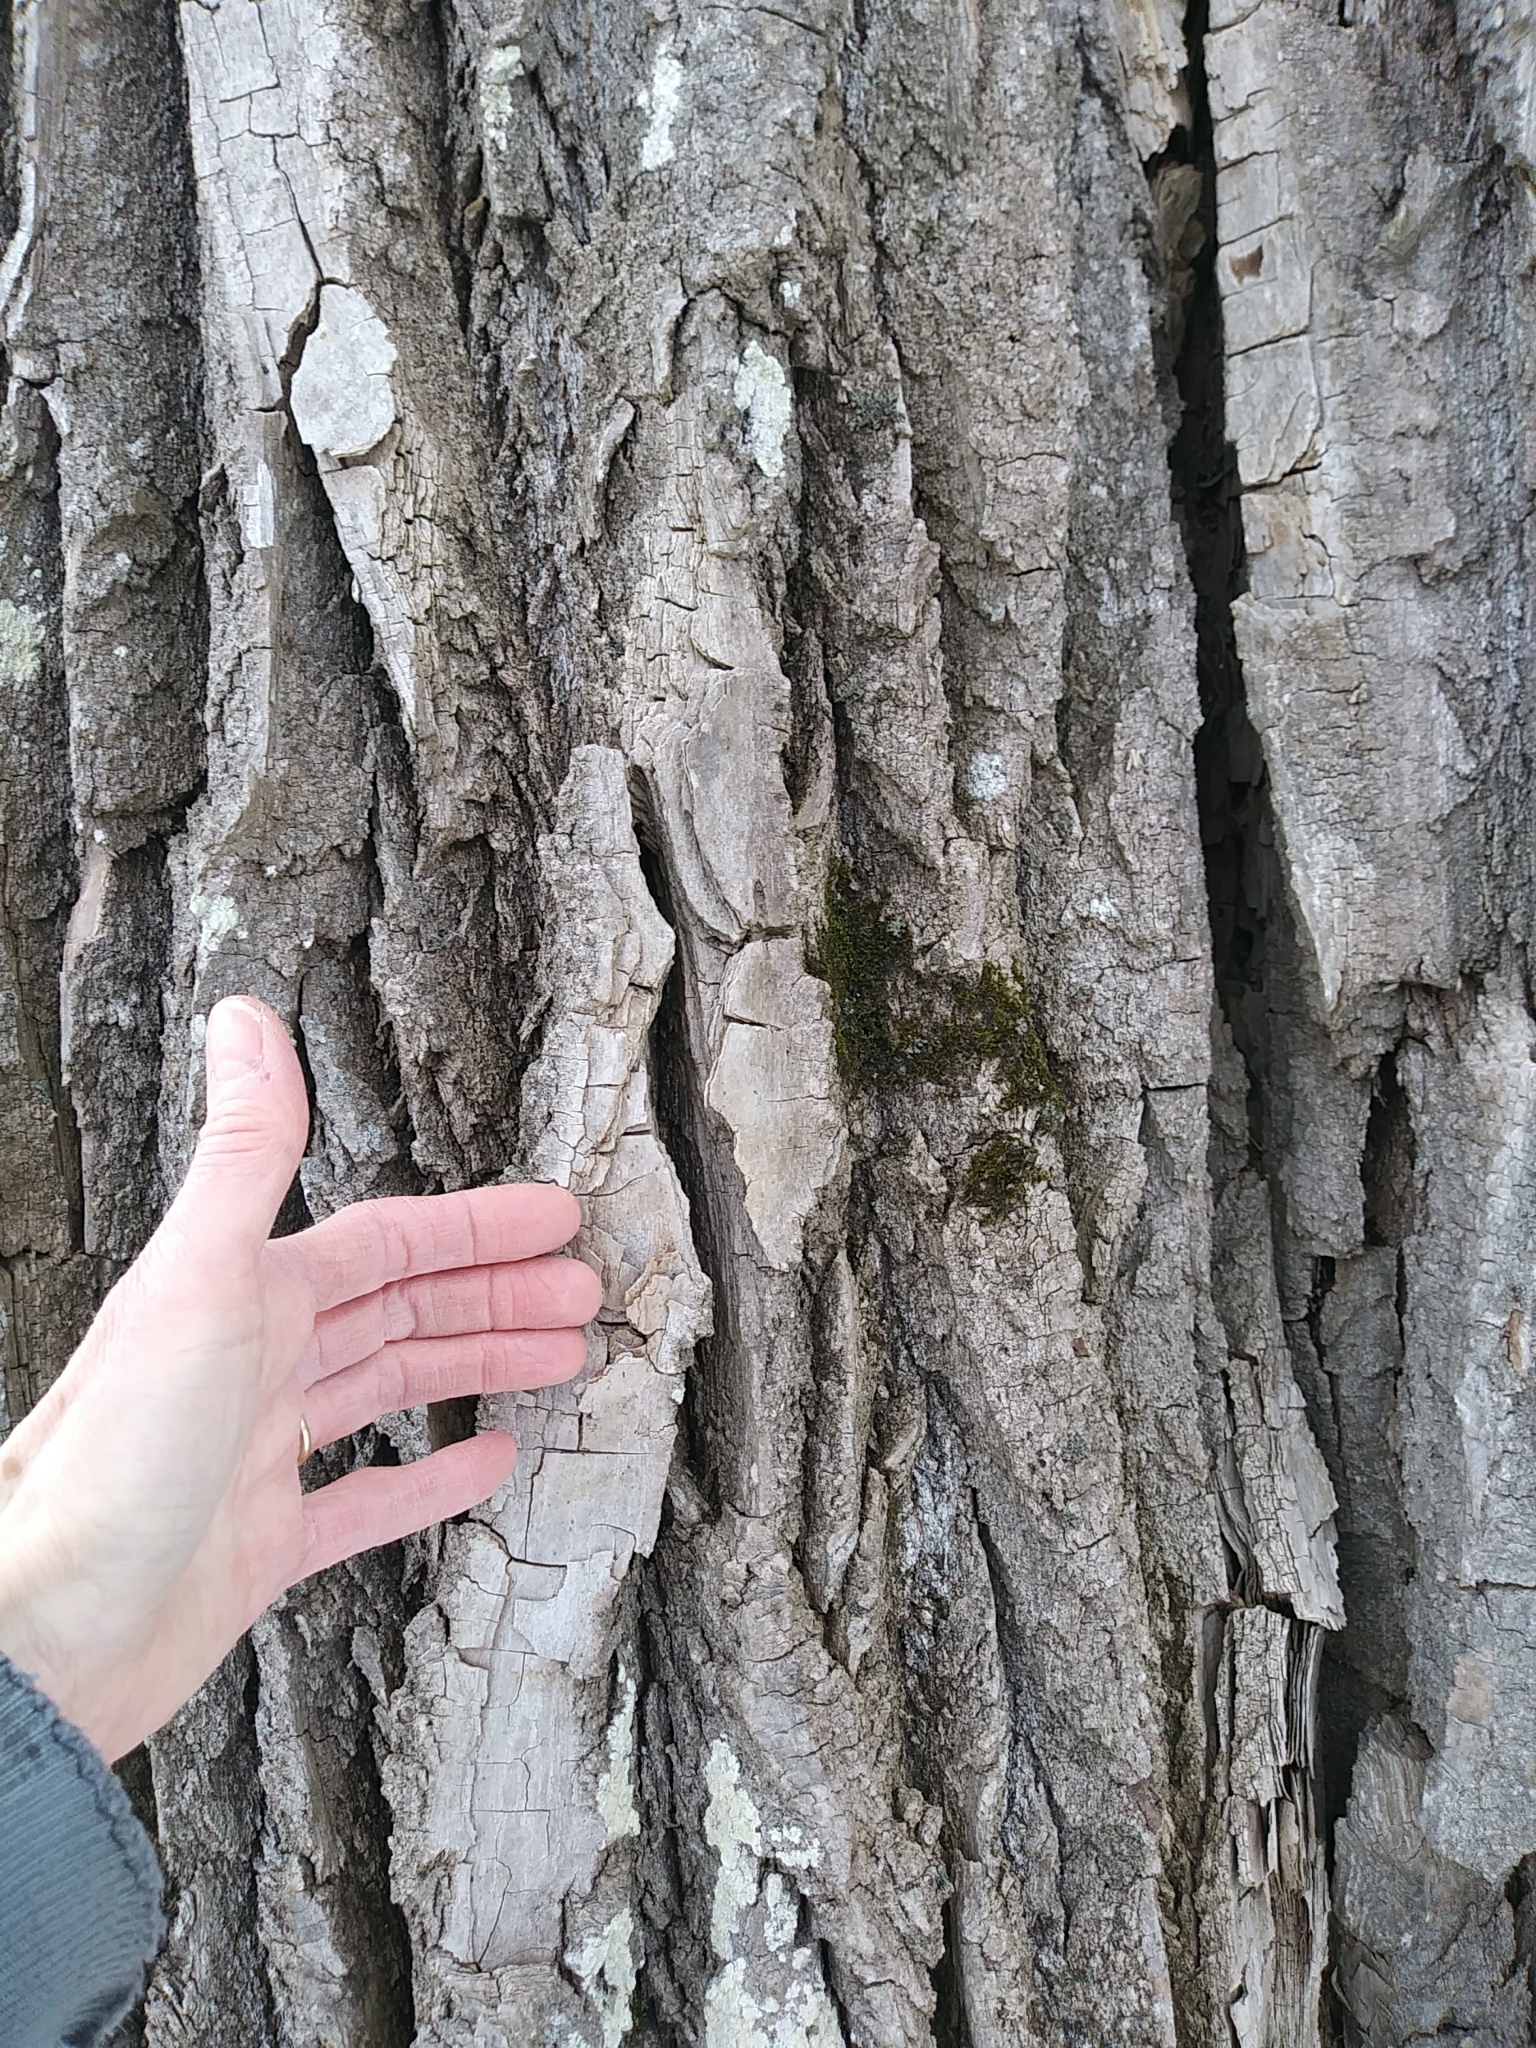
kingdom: Plantae
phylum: Tracheophyta
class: Magnoliopsida
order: Malpighiales
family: Salicaceae
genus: Populus
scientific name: Populus deltoides
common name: Eastern cottonwood
